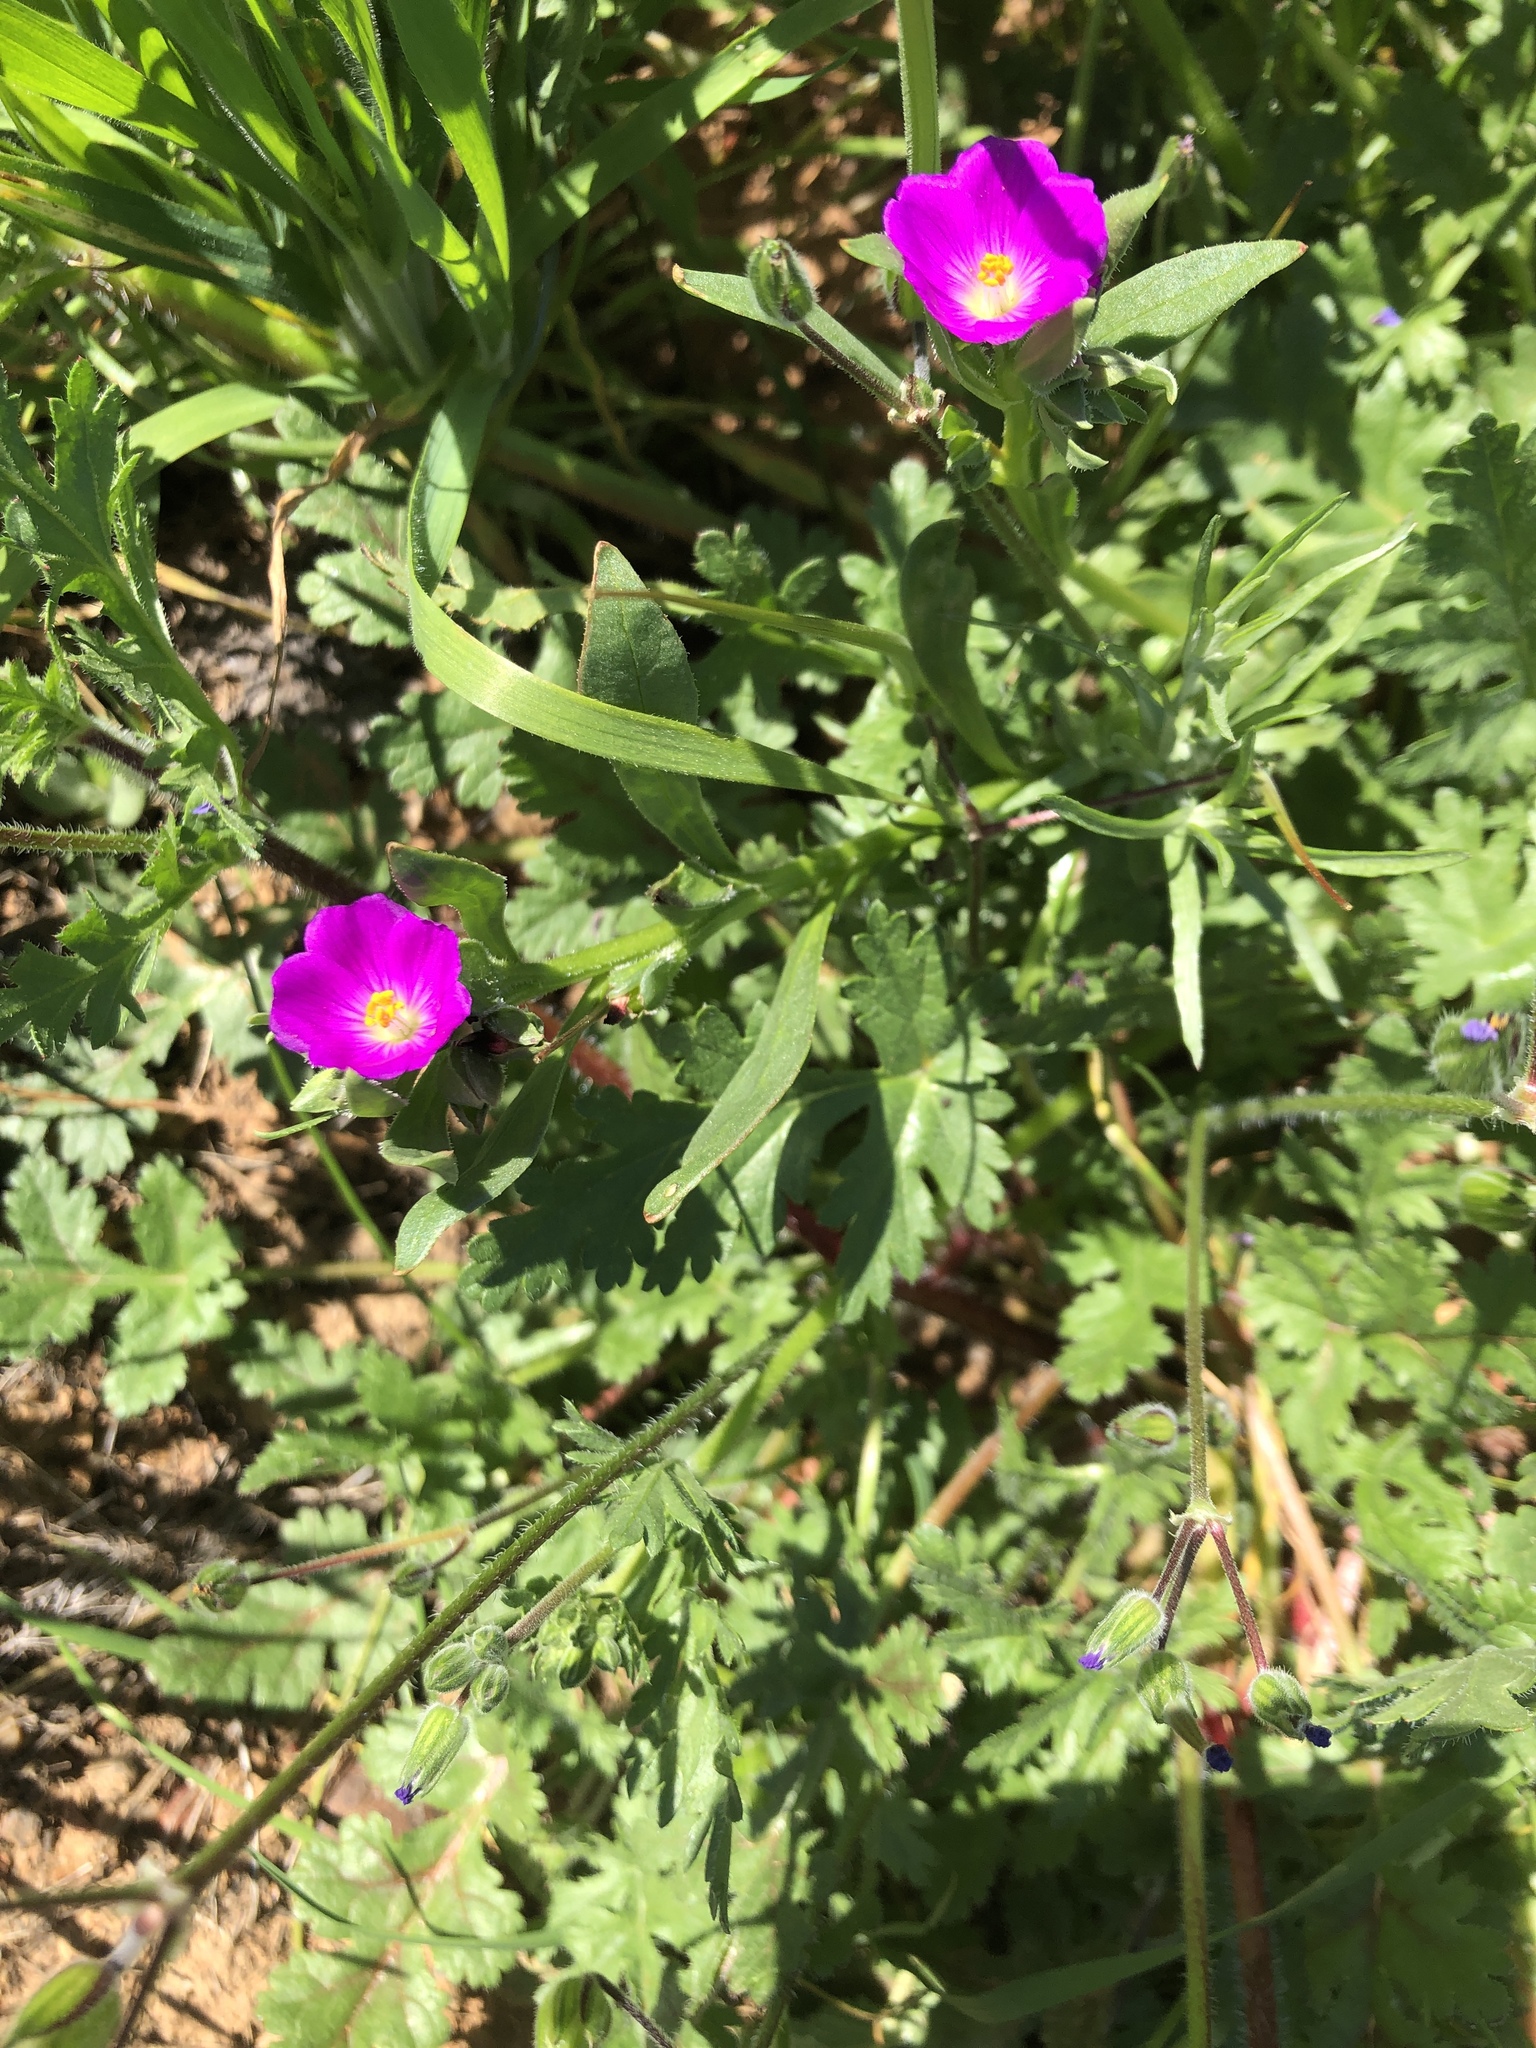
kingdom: Plantae
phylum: Tracheophyta
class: Magnoliopsida
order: Caryophyllales
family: Montiaceae
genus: Calandrinia
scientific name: Calandrinia menziesii
